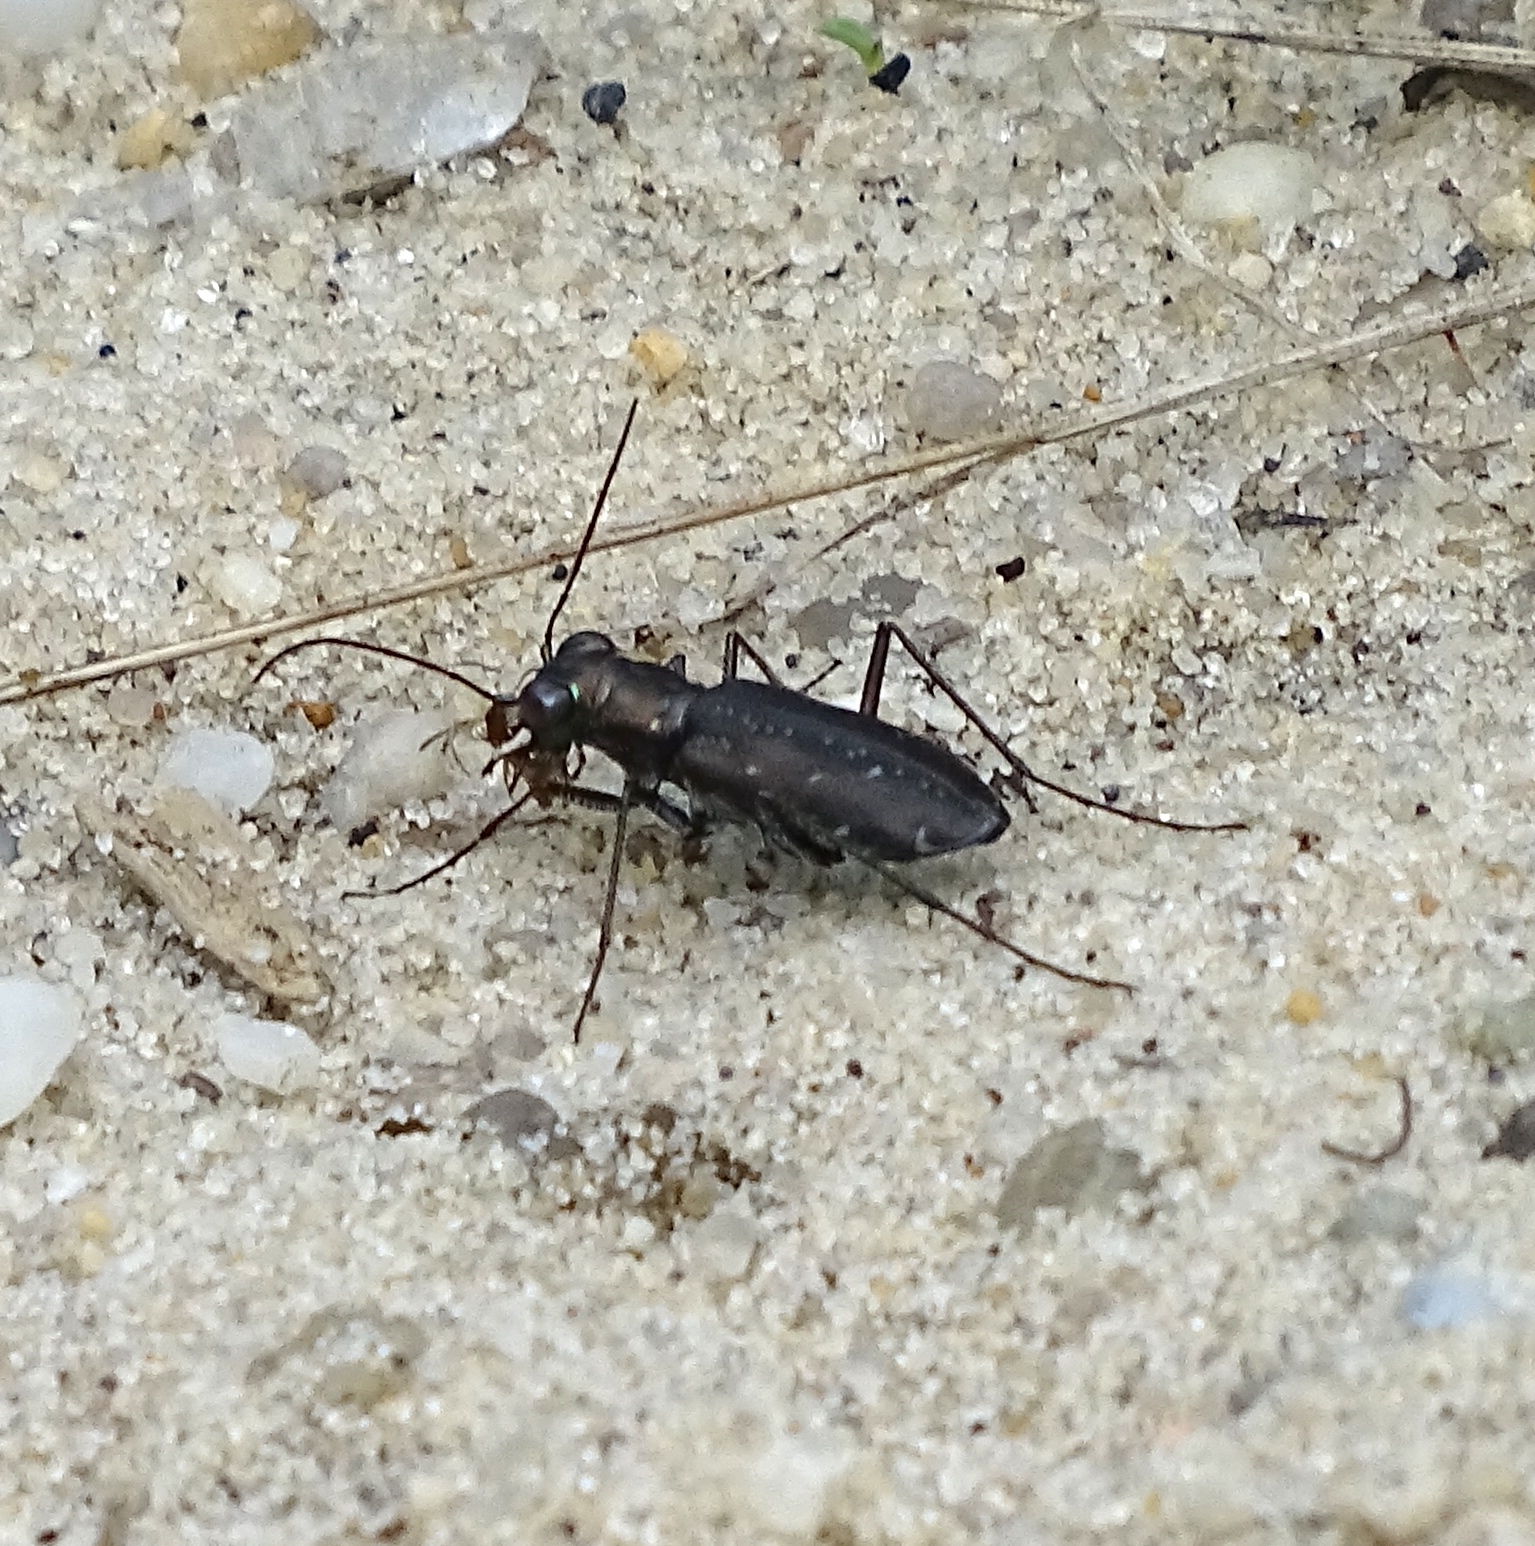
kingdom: Animalia
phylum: Arthropoda
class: Insecta
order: Coleoptera
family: Carabidae
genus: Cicindela
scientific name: Cicindela punctulata
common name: Punctured tiger beetle
